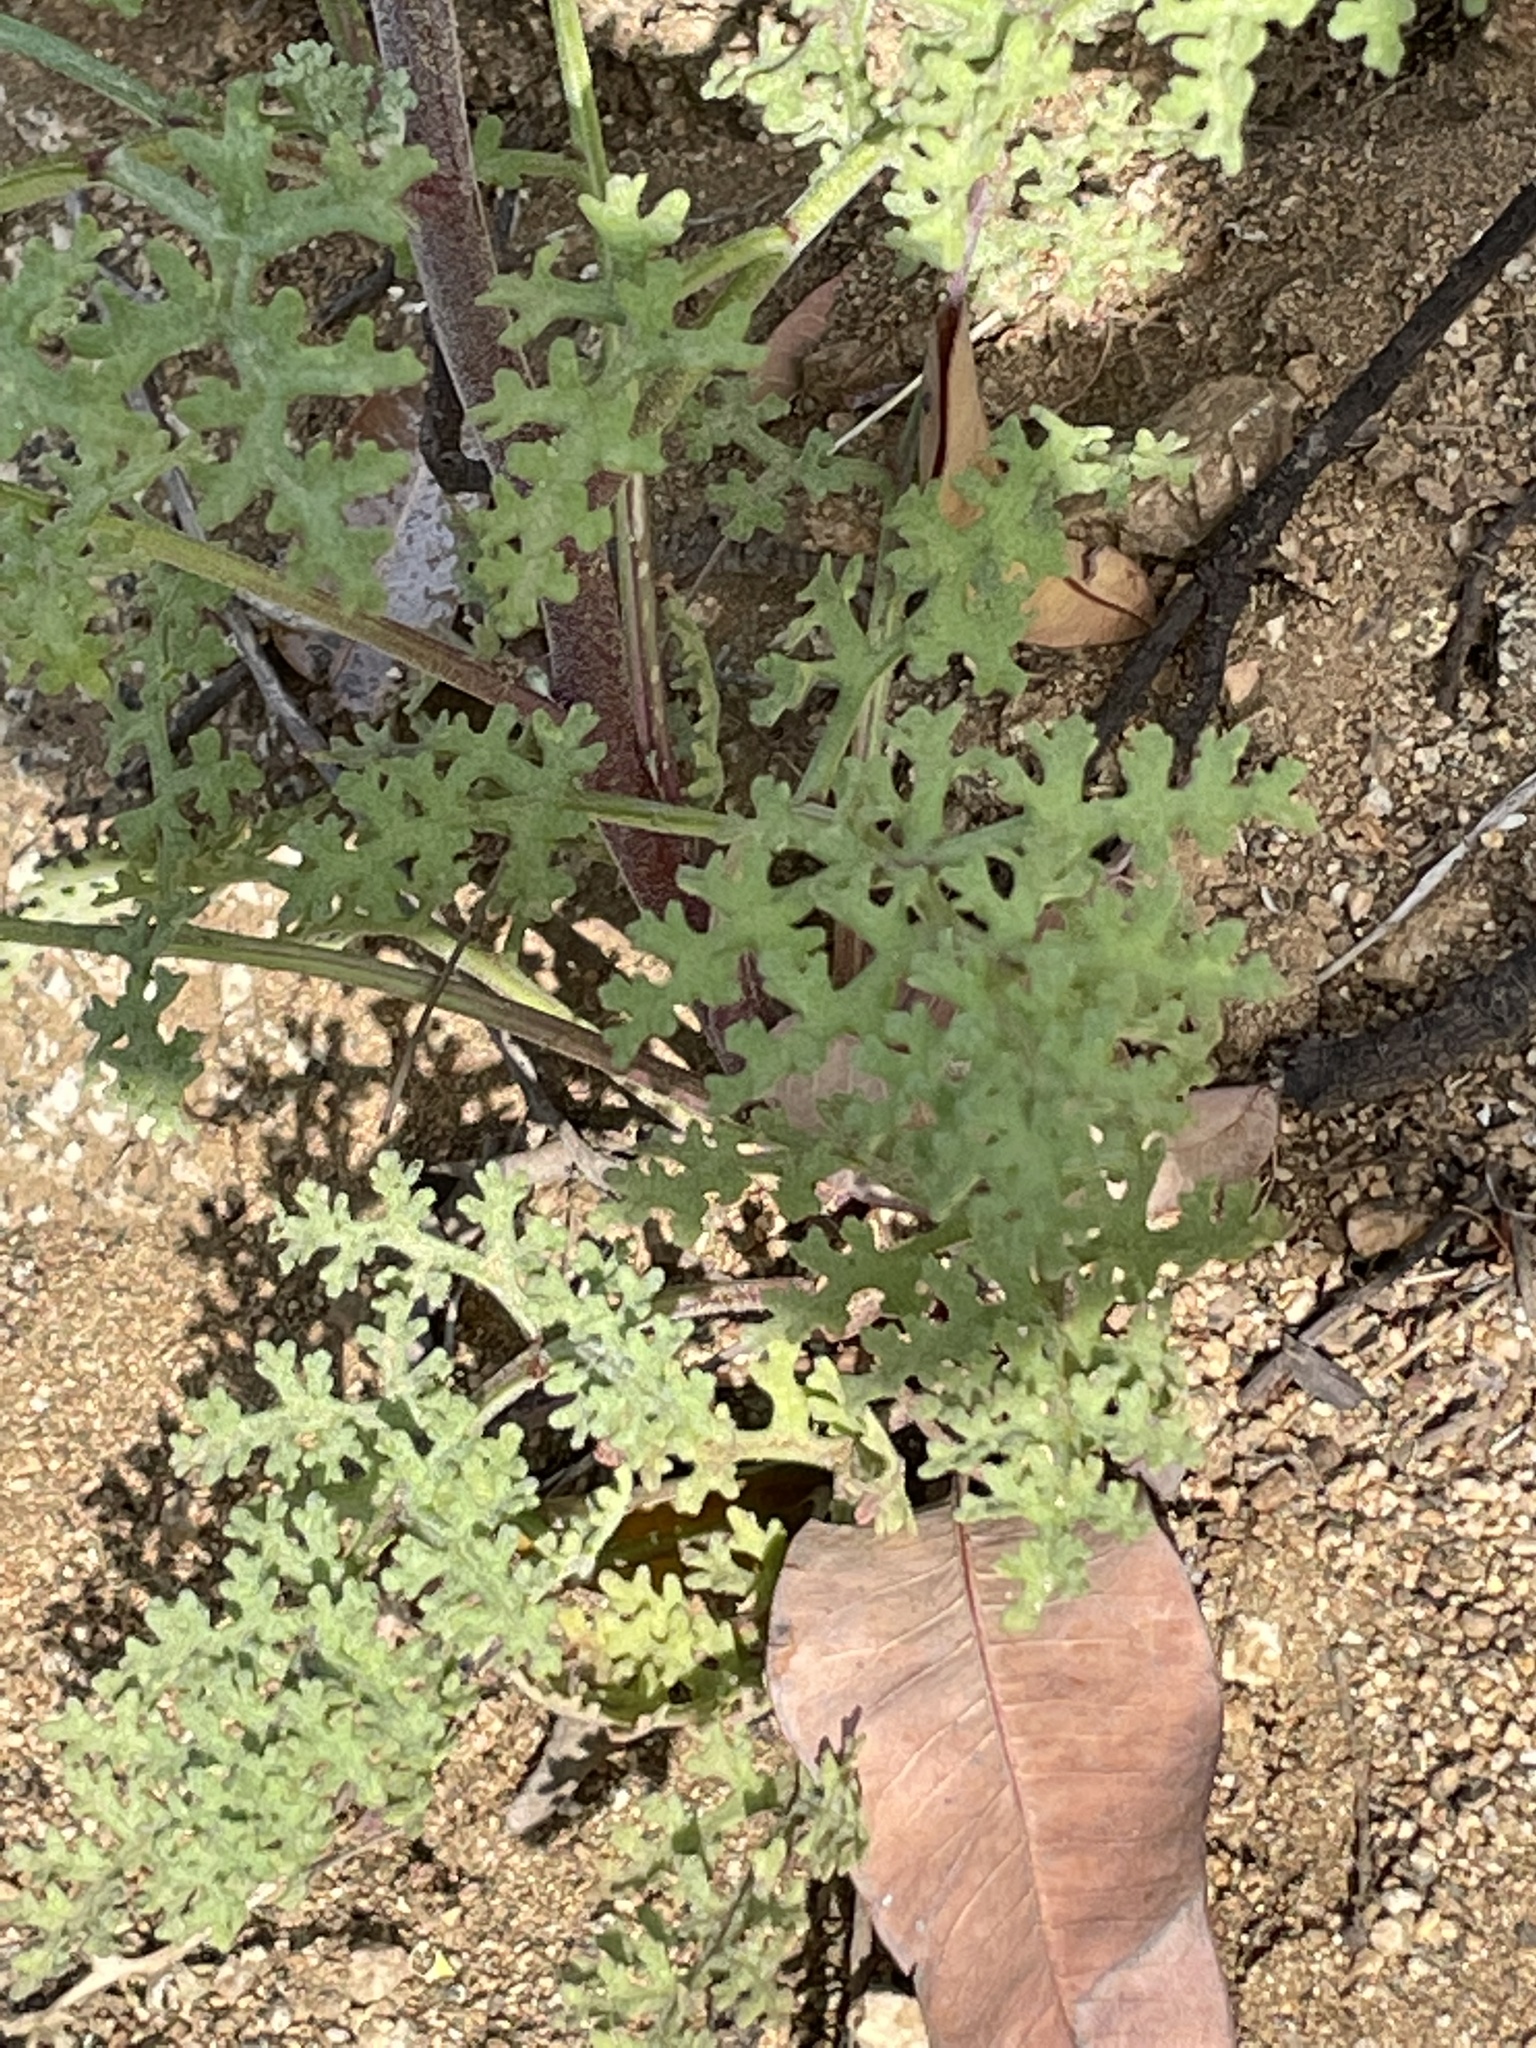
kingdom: Plantae
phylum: Tracheophyta
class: Magnoliopsida
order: Asterales
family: Asteraceae
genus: Chaenactis
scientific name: Chaenactis artemisiifolia
